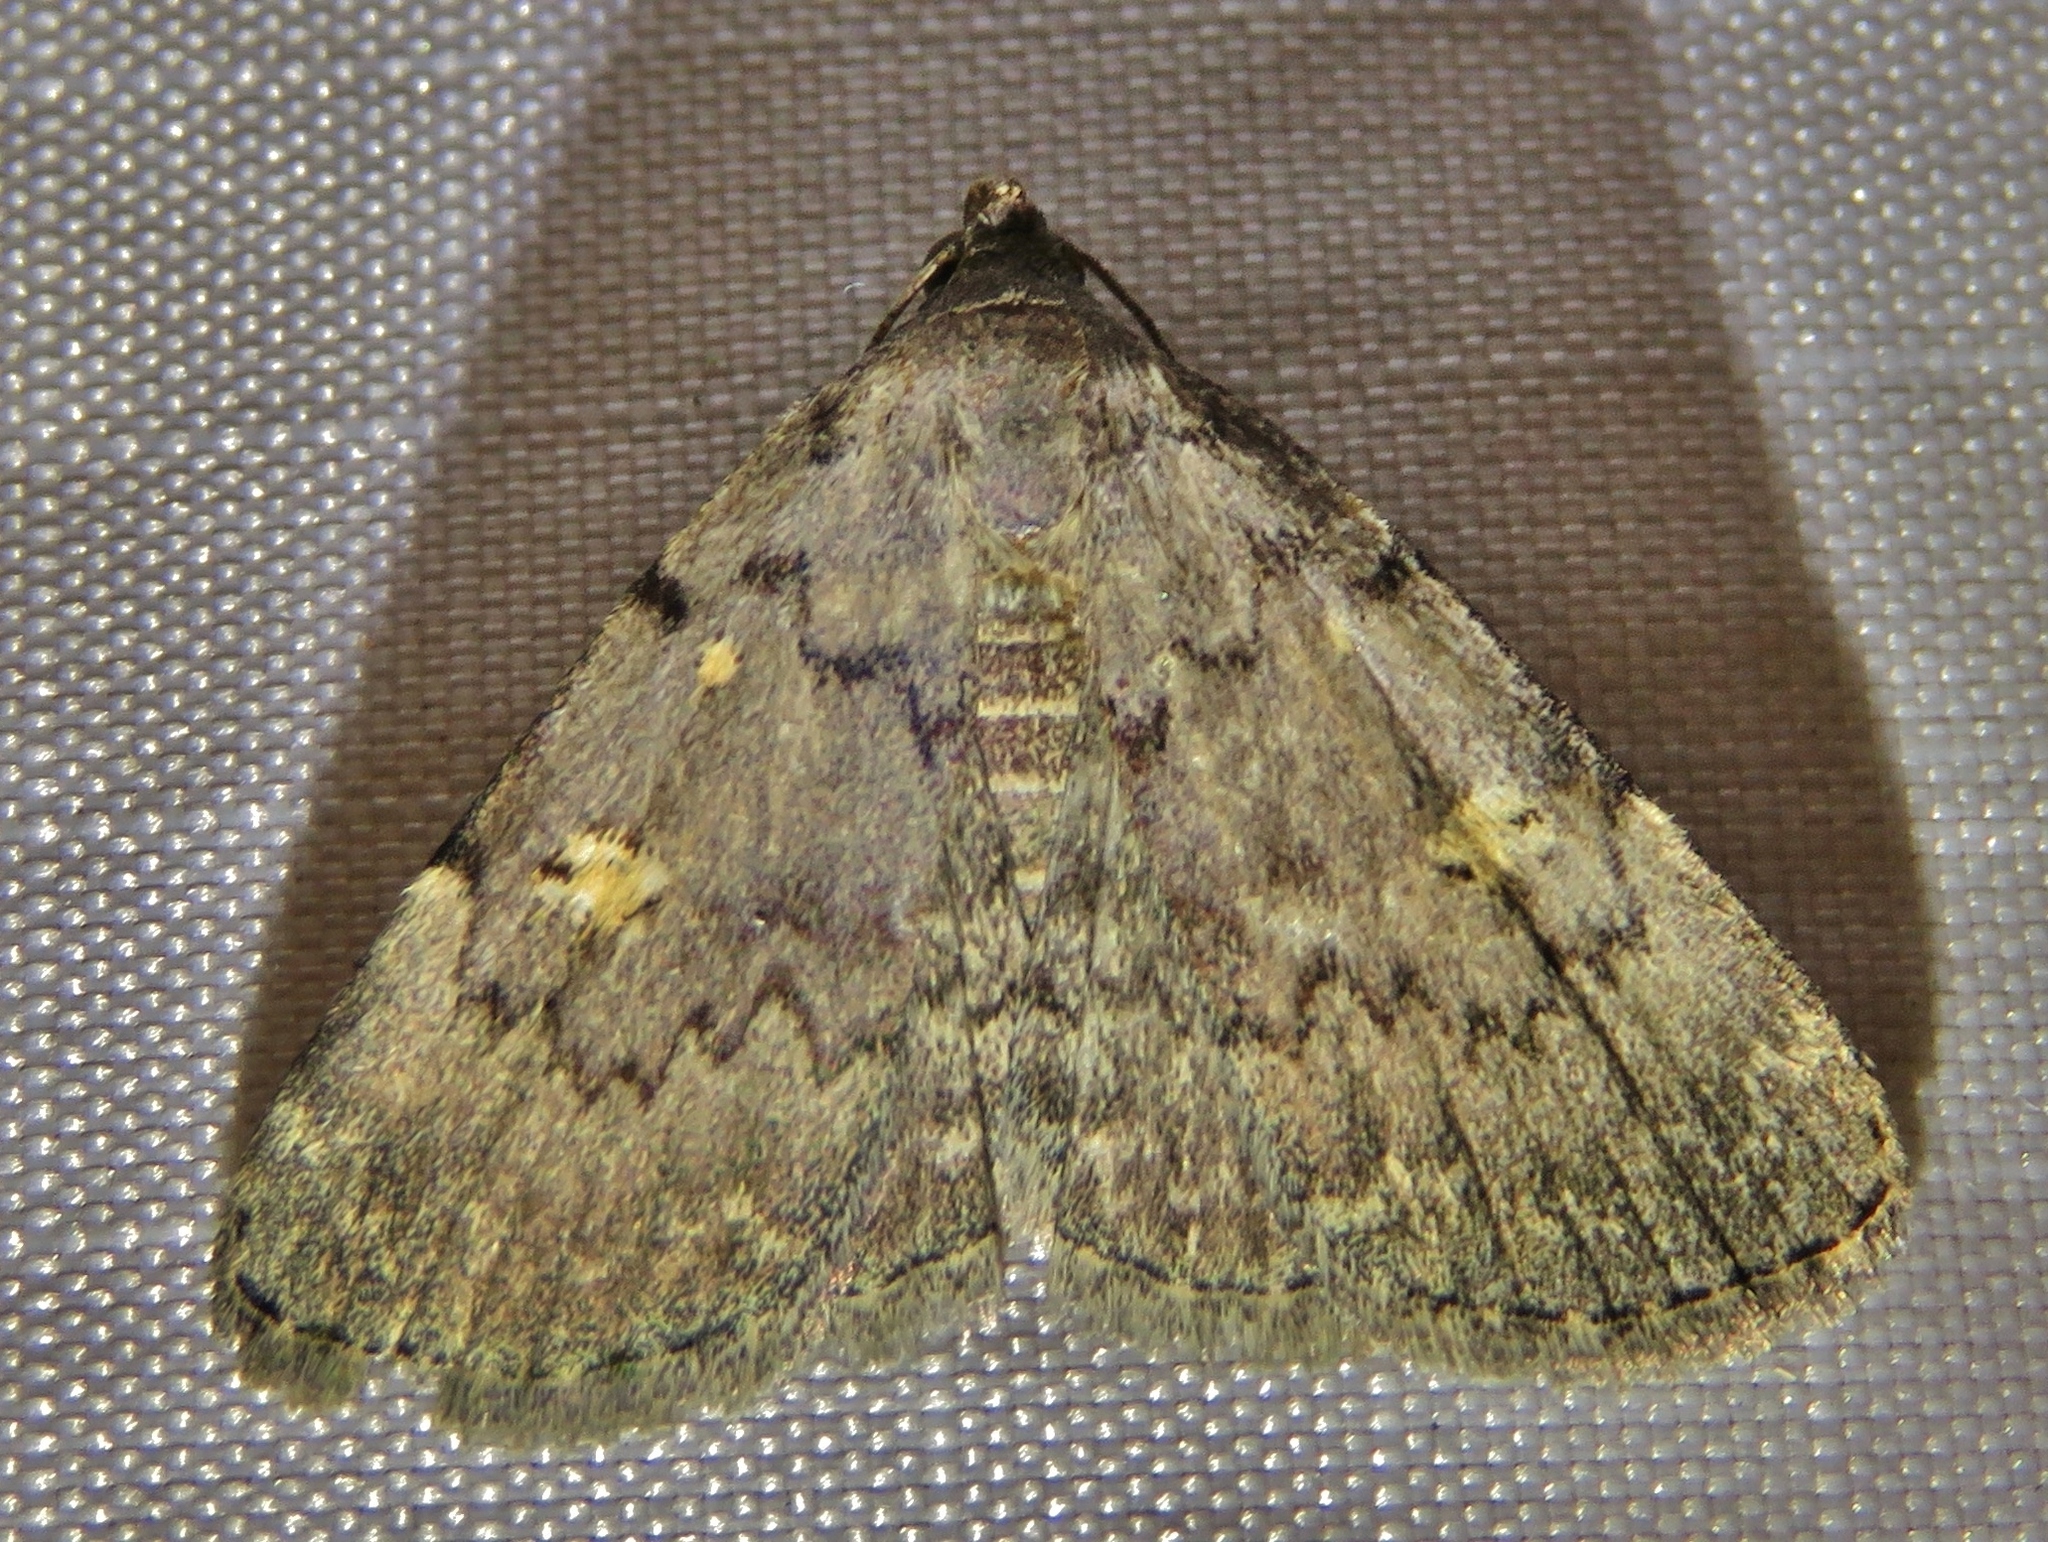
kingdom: Animalia
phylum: Arthropoda
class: Insecta
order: Lepidoptera
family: Erebidae
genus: Idia
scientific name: Idia aemula
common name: Common idia moth
